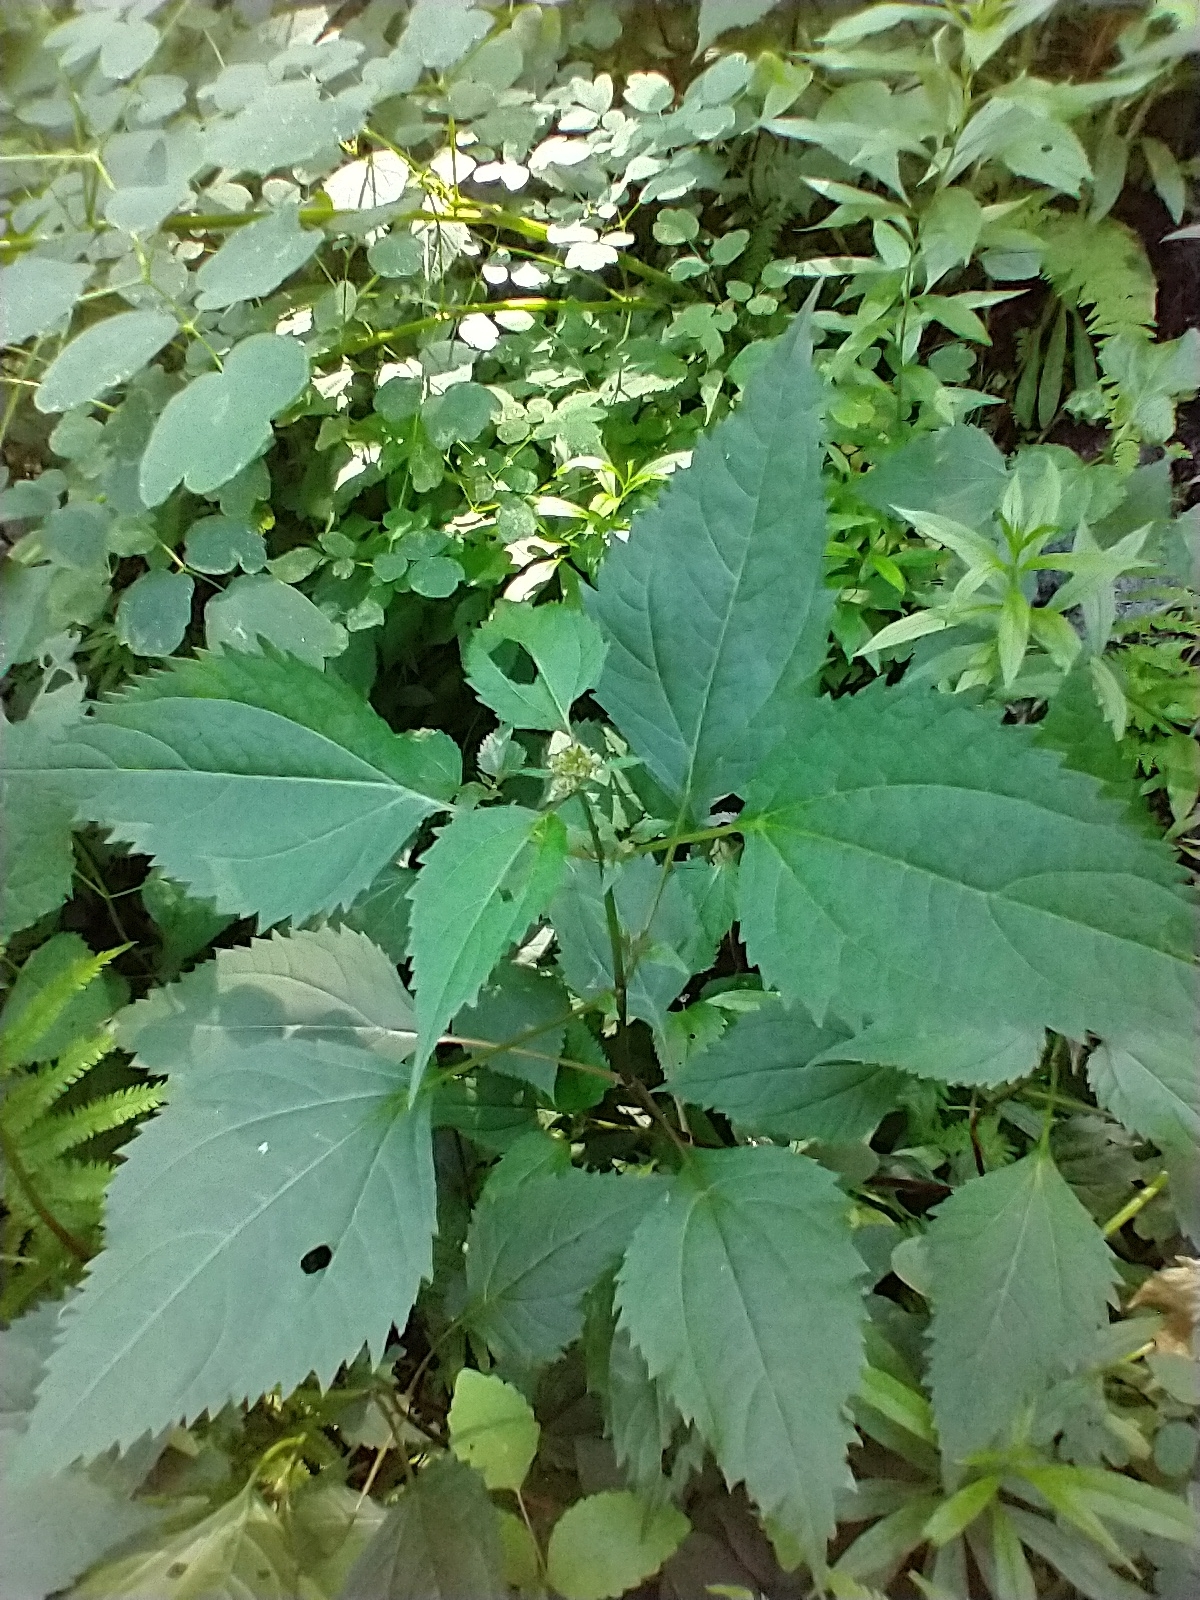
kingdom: Plantae
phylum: Tracheophyta
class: Magnoliopsida
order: Asterales
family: Asteraceae
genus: Ageratina
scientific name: Ageratina altissima
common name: White snakeroot
